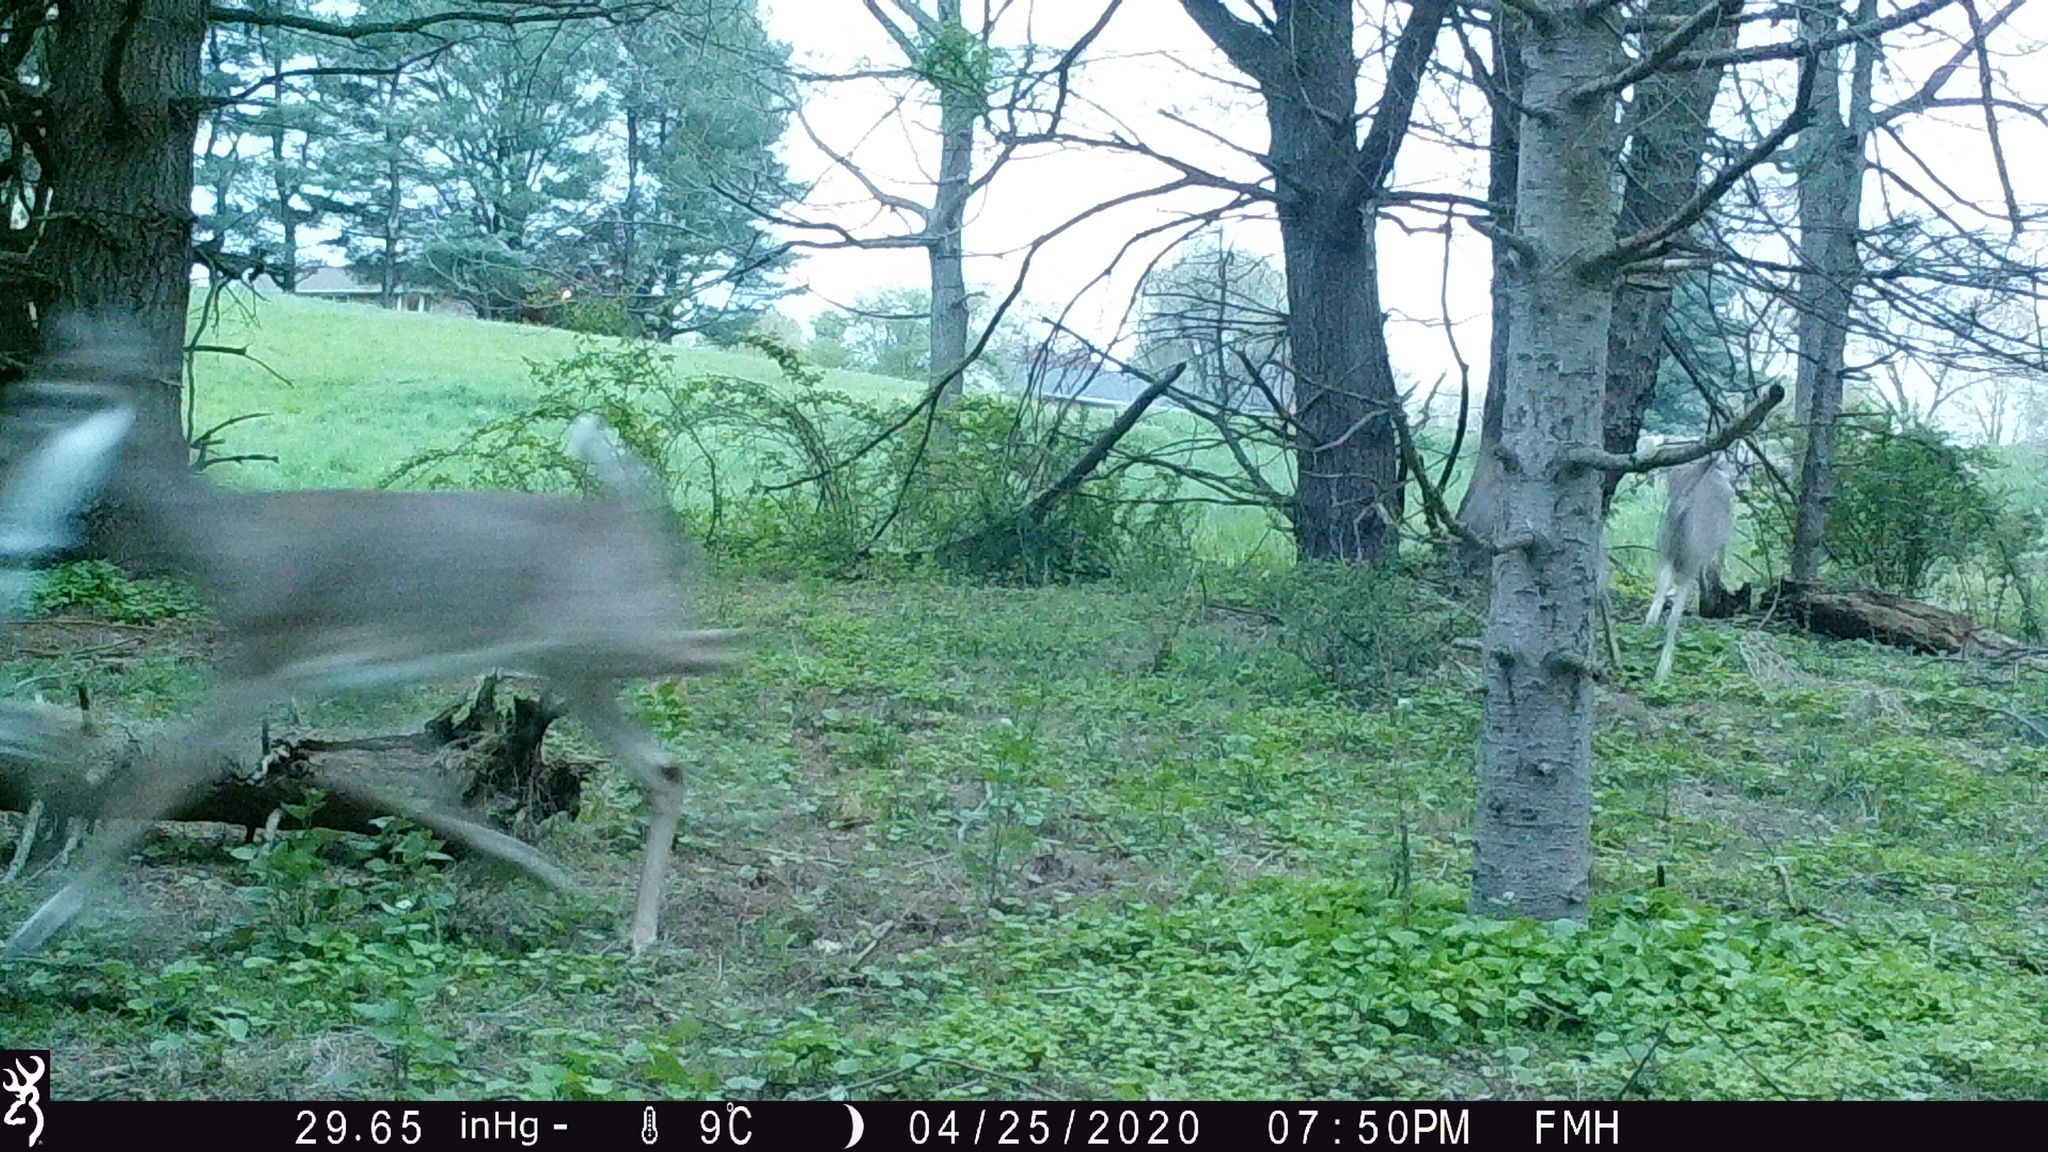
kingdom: Animalia
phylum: Chordata
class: Mammalia
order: Artiodactyla
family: Cervidae
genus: Odocoileus
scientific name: Odocoileus virginianus
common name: White-tailed deer
